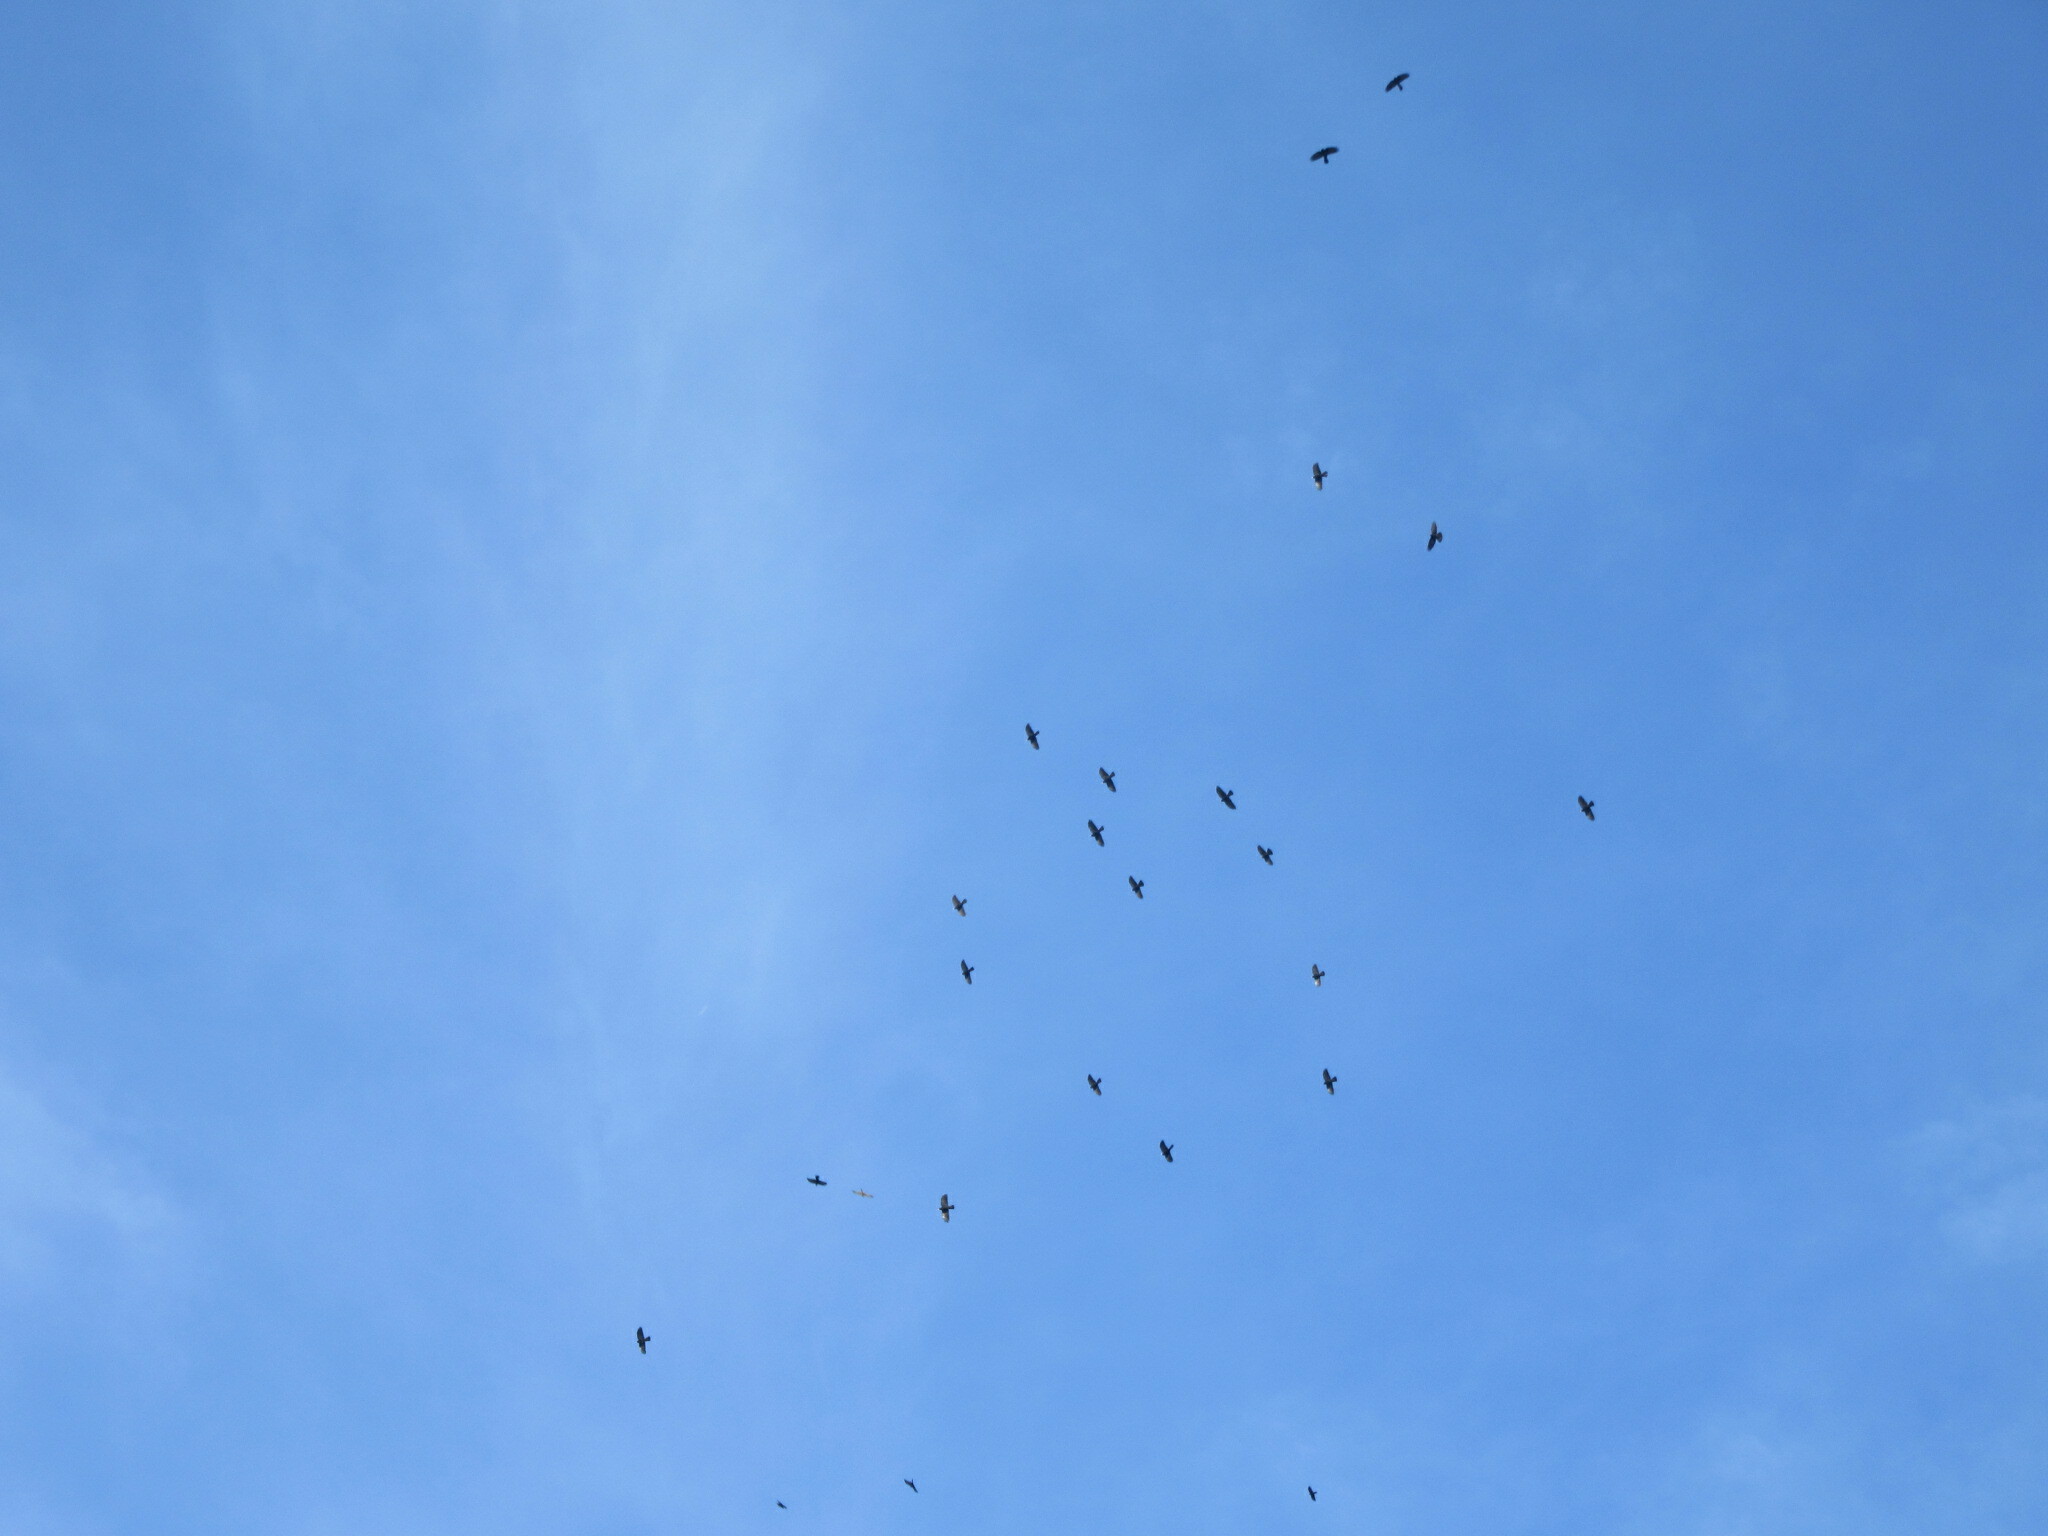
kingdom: Animalia
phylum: Chordata
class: Aves
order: Passeriformes
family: Corvidae
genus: Pyrrhocorax
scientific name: Pyrrhocorax graculus
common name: Alpine chough
